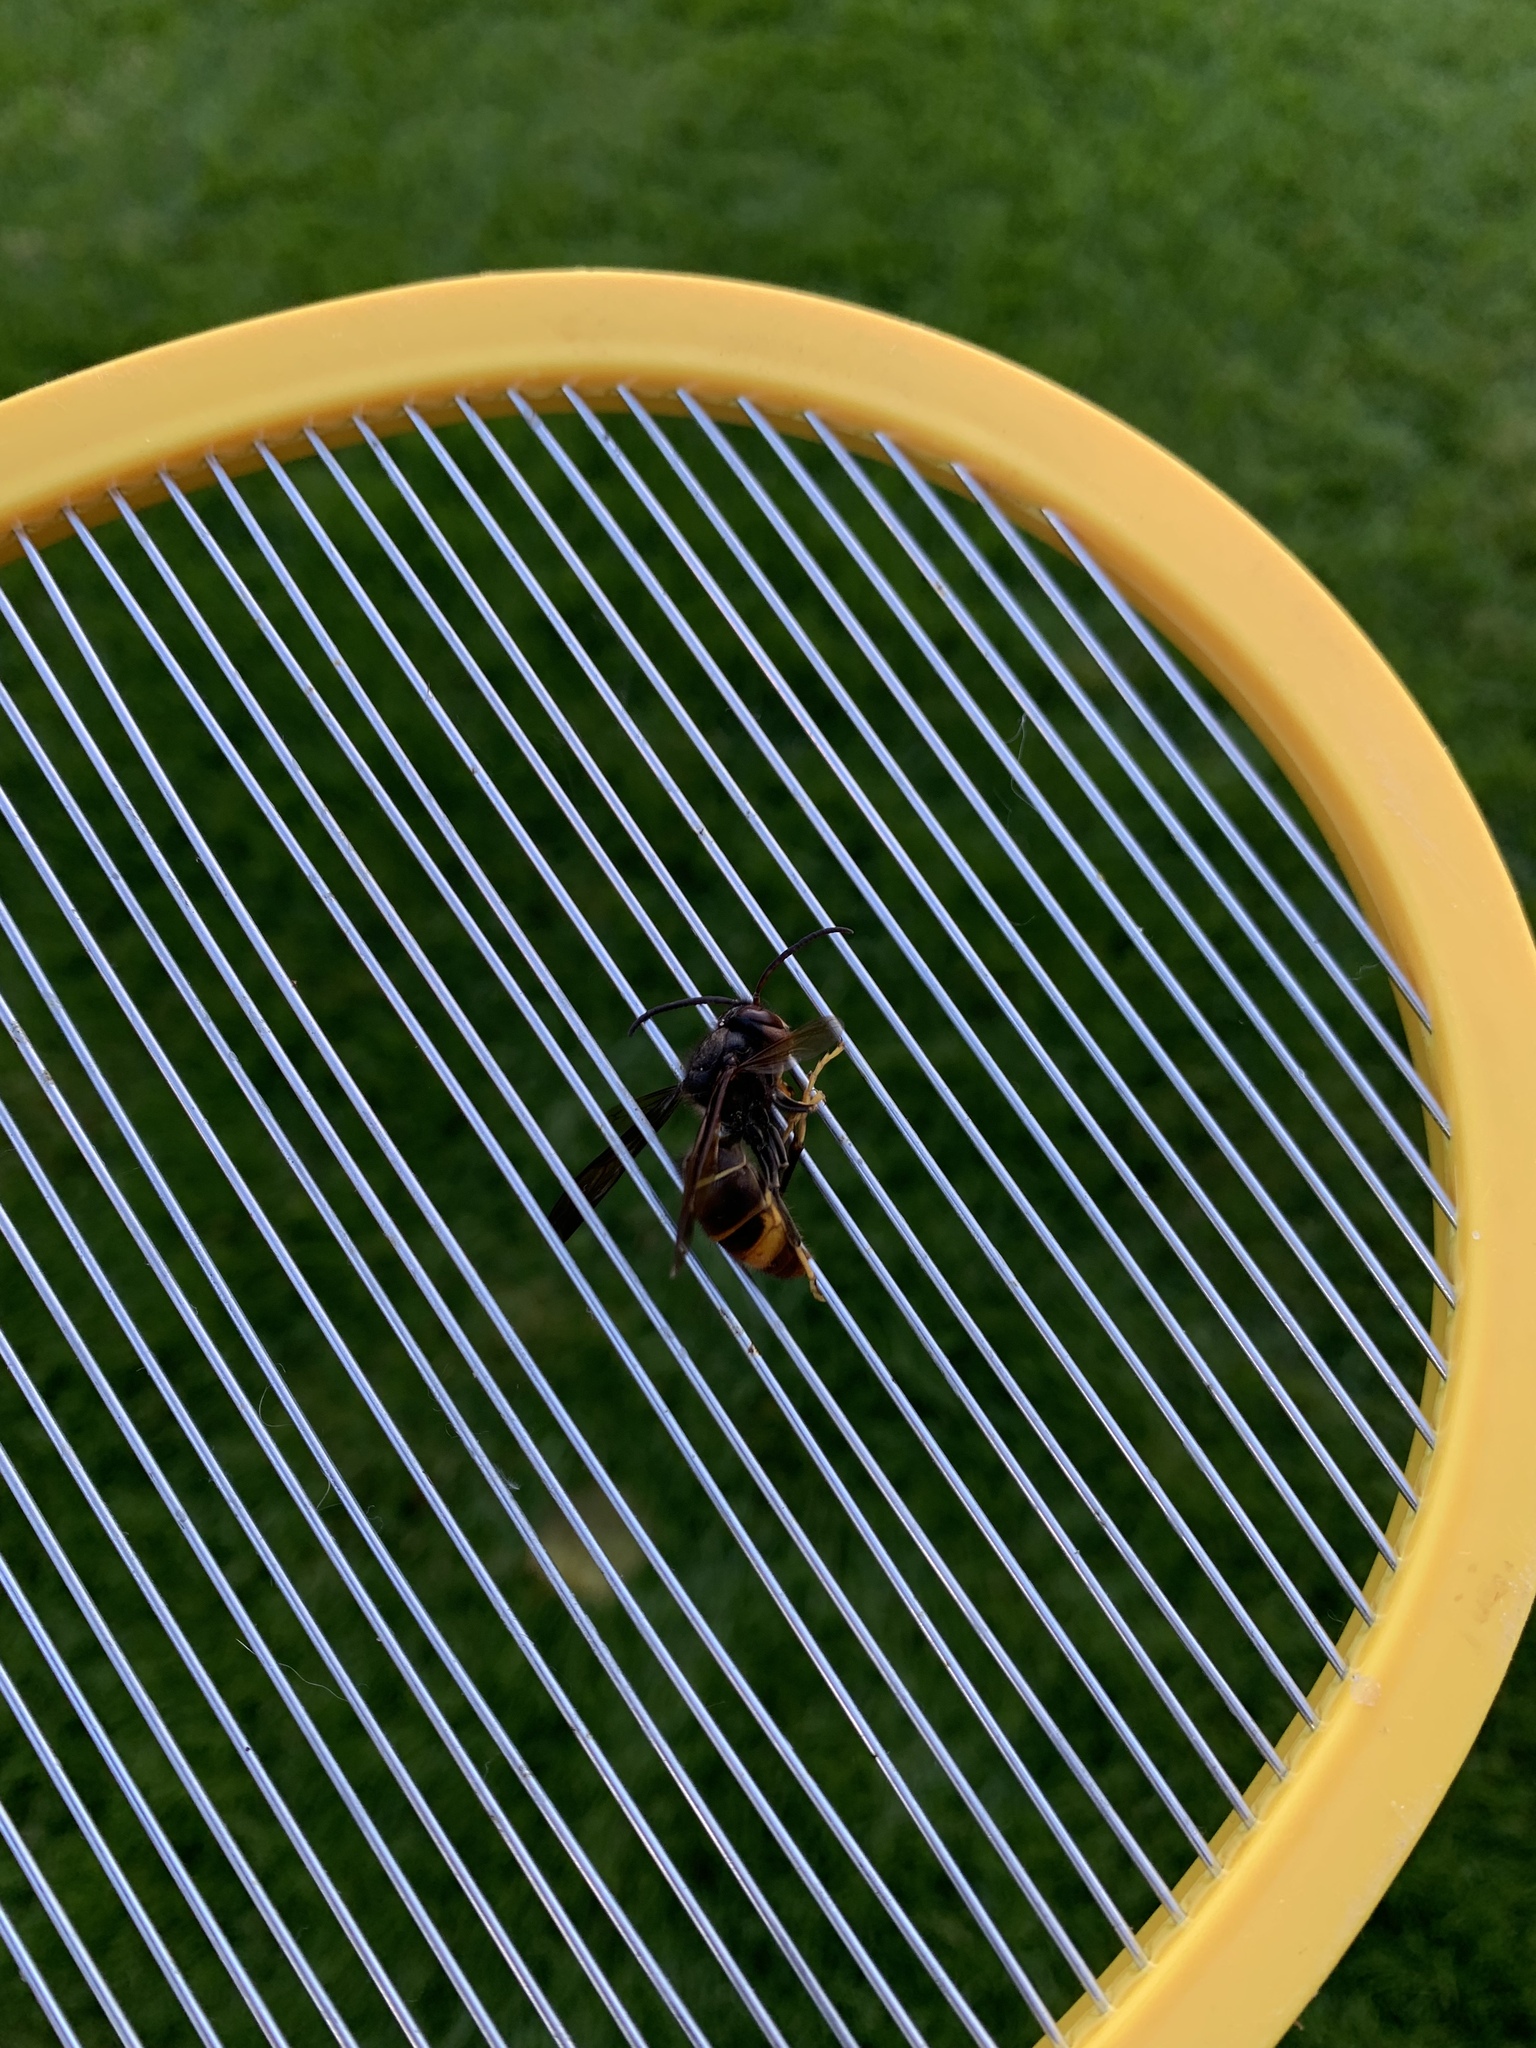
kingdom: Animalia
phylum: Arthropoda
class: Insecta
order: Hymenoptera
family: Vespidae
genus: Vespa
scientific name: Vespa velutina
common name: Asian hornet
